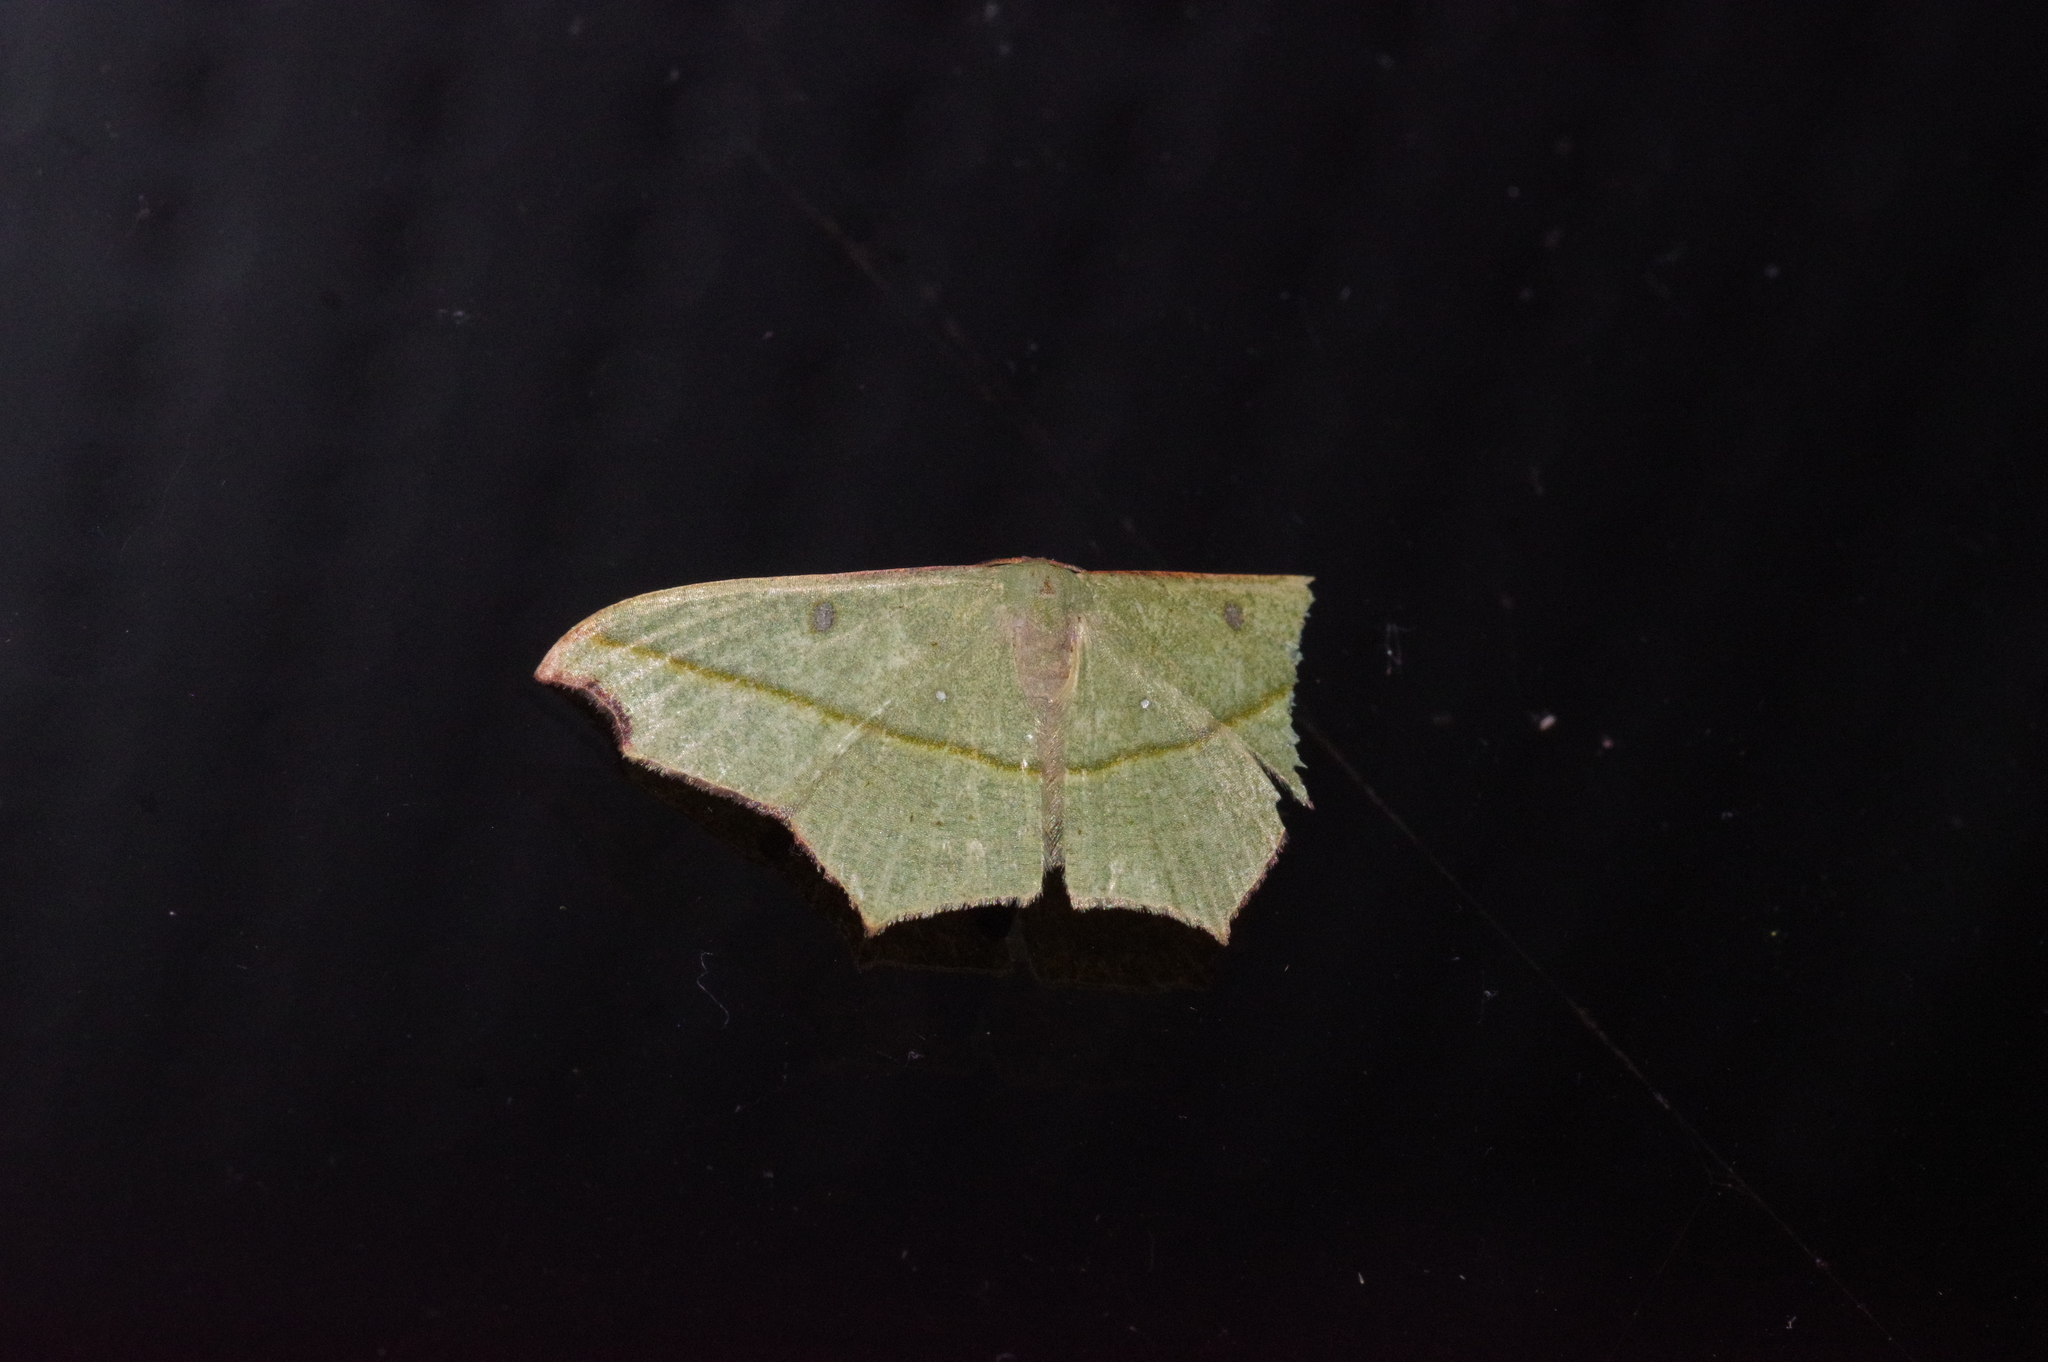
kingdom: Animalia
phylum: Arthropoda
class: Insecta
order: Lepidoptera
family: Geometridae
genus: Traminda
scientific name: Traminda aventiaria
